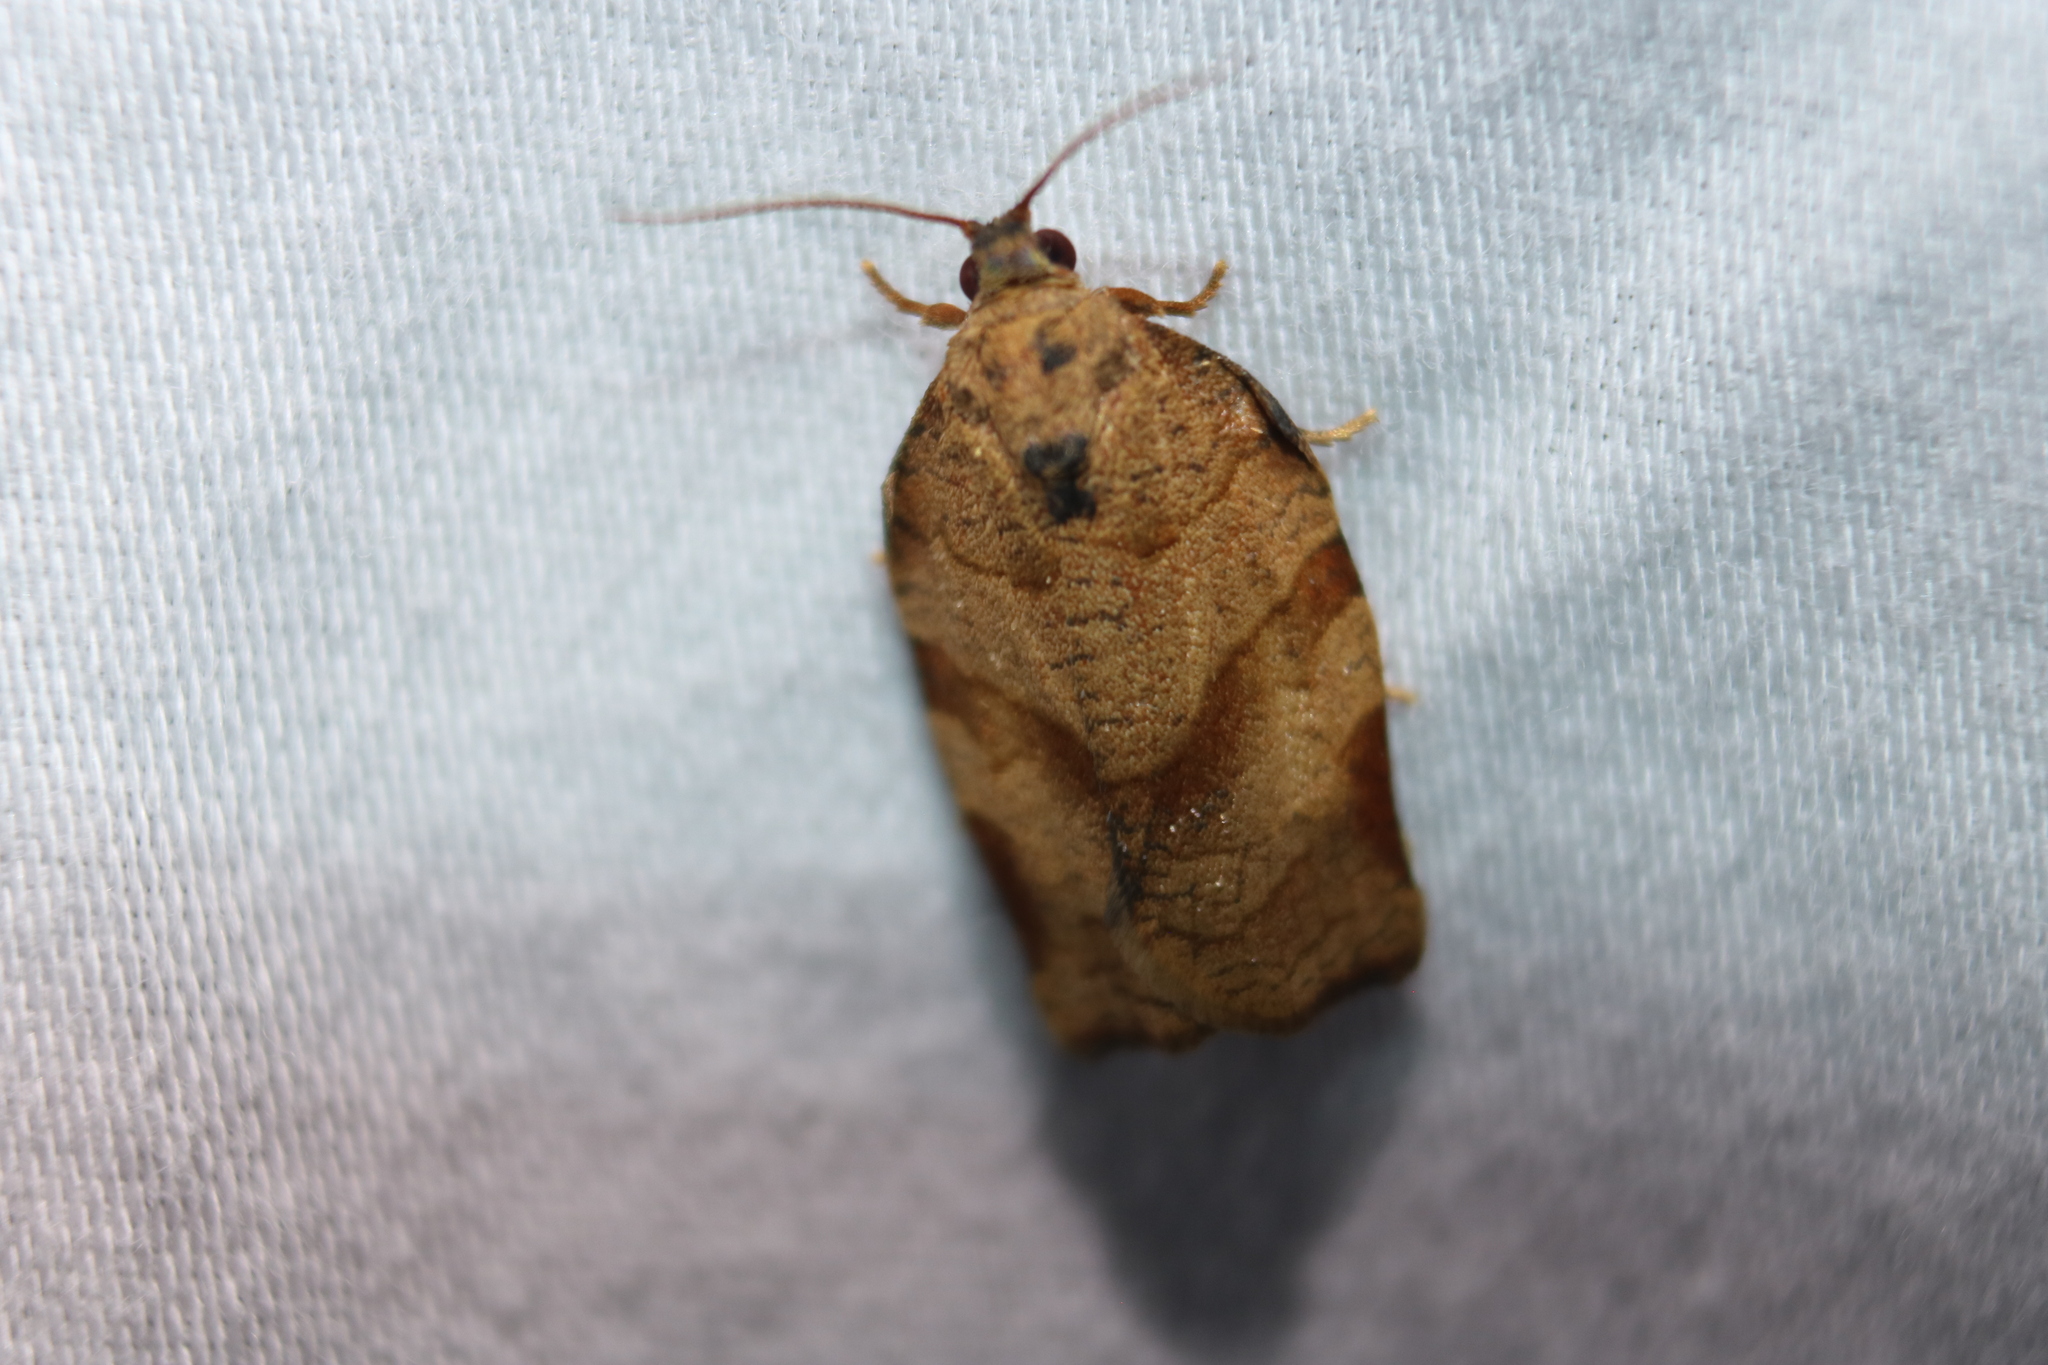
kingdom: Animalia
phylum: Arthropoda
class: Insecta
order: Lepidoptera
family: Tortricidae
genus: Choristoneura
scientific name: Choristoneura rosaceana
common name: Oblique-banded leafroller moth
